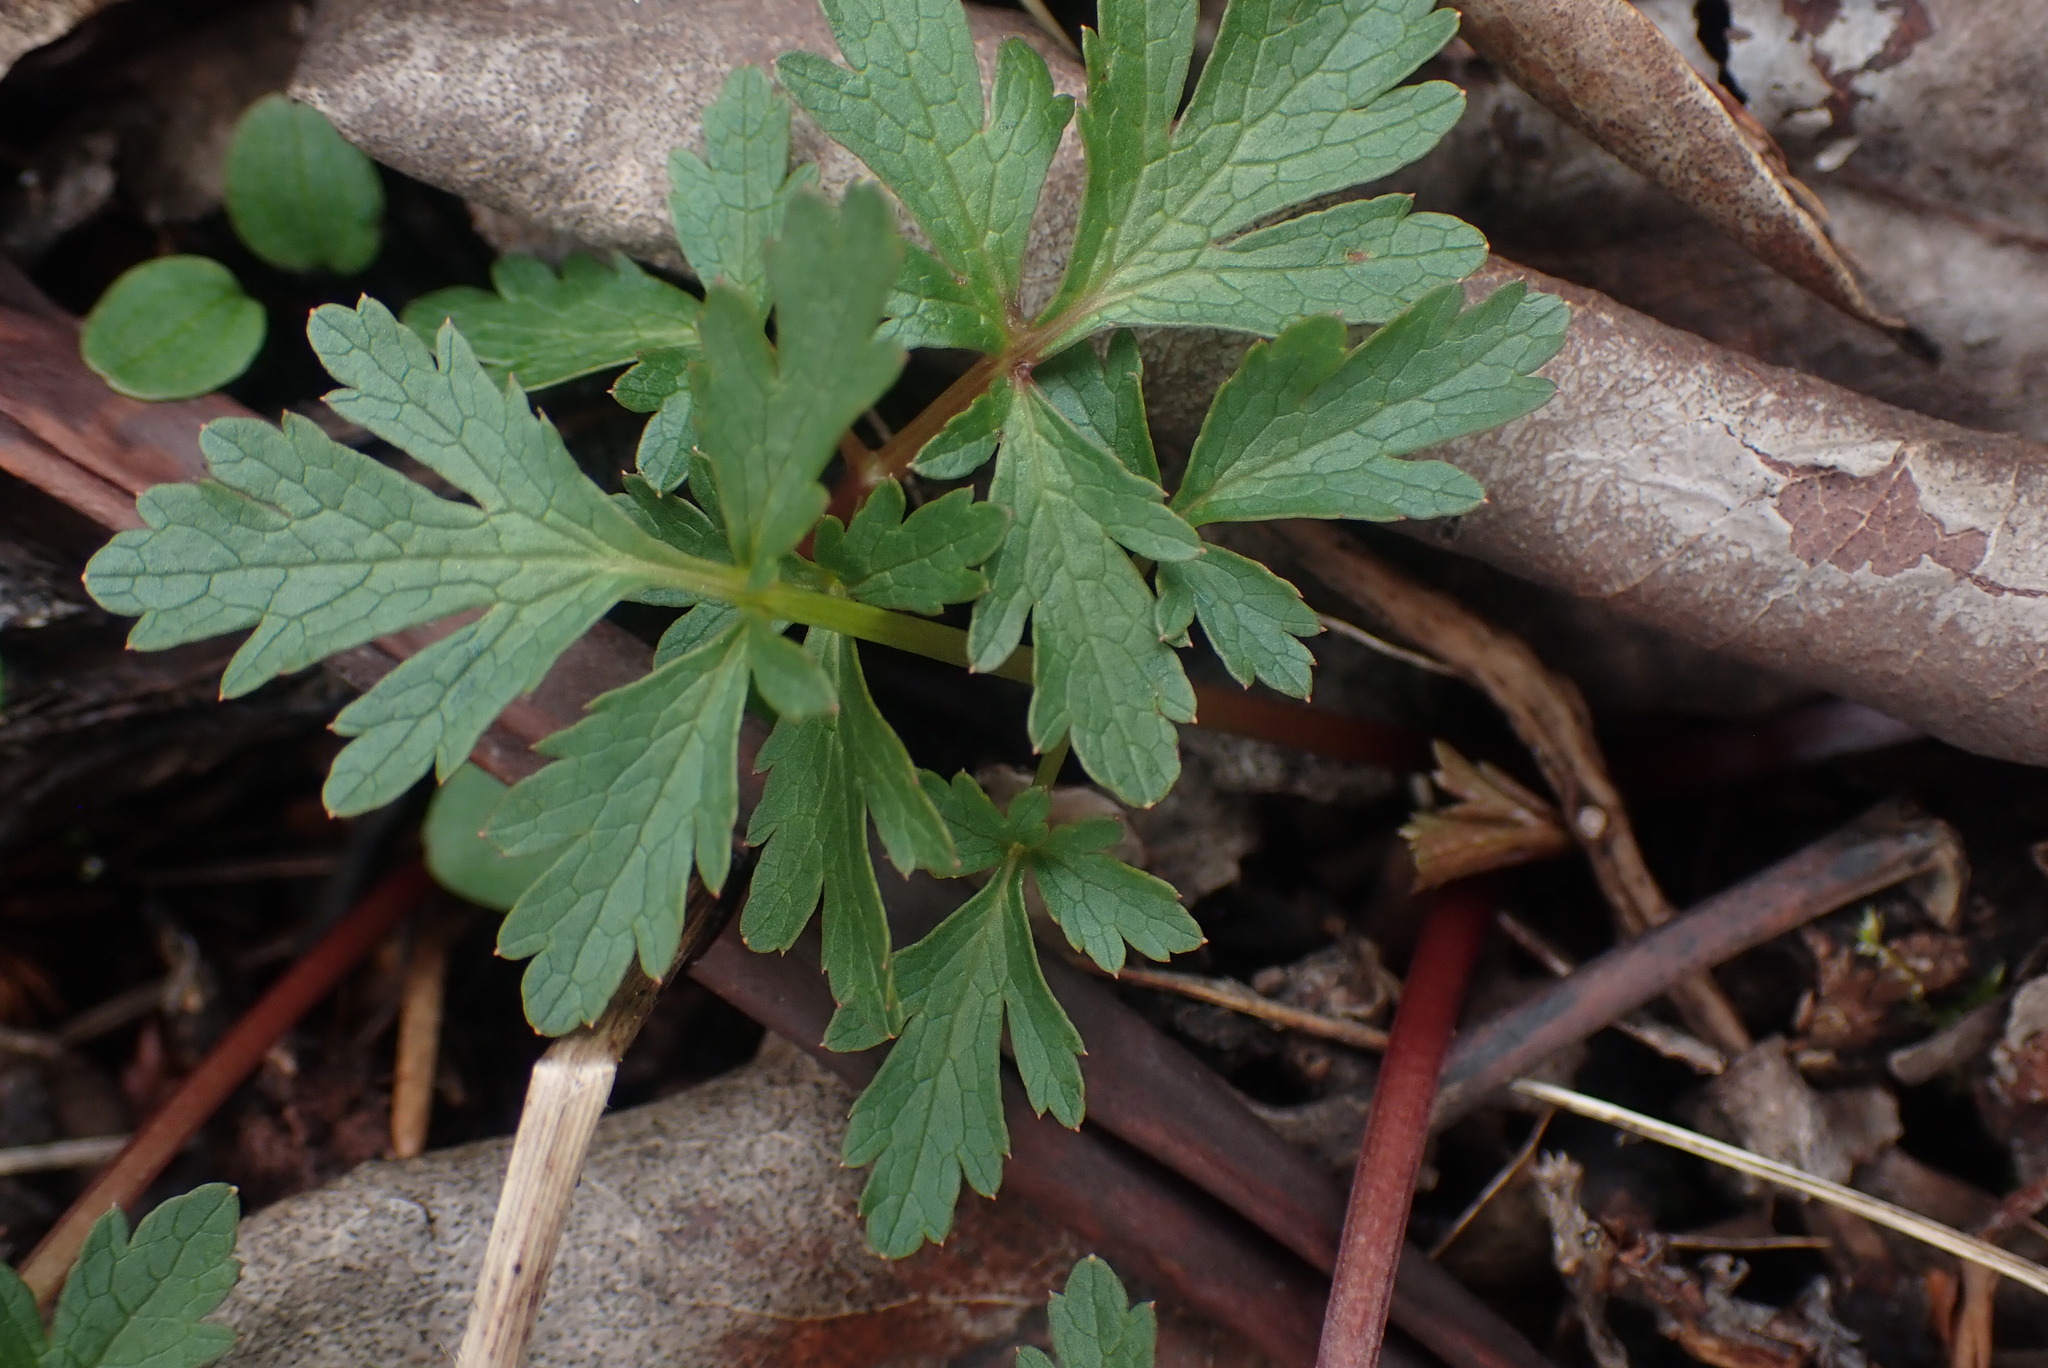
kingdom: Plantae
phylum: Tracheophyta
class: Magnoliopsida
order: Apiales
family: Apiaceae
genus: Sanicula
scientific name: Sanicula graveolens
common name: Sierra sanicle
